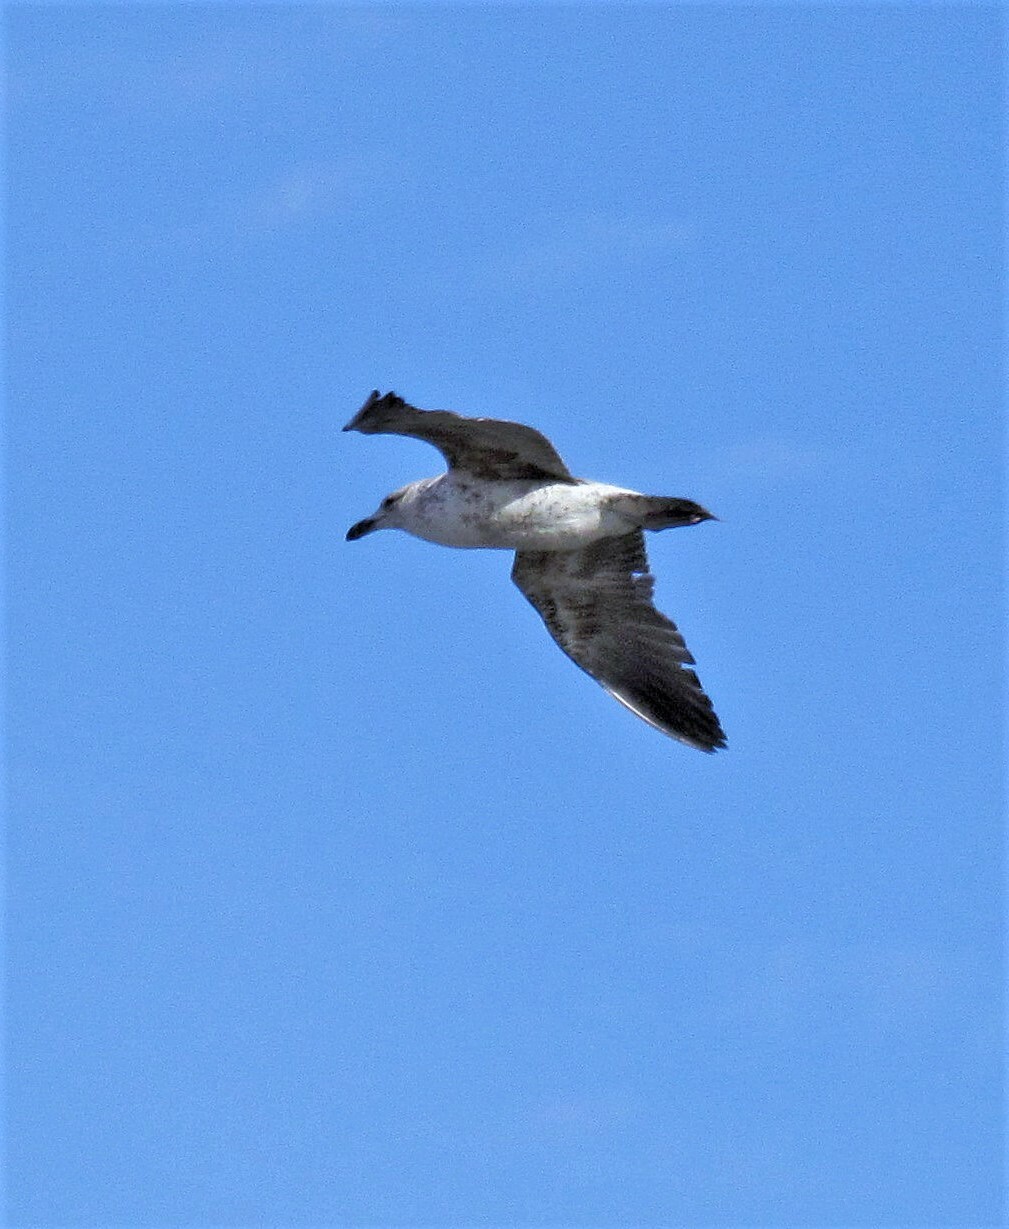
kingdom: Animalia
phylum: Chordata
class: Aves
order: Charadriiformes
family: Laridae
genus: Larus
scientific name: Larus dominicanus
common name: Kelp gull
